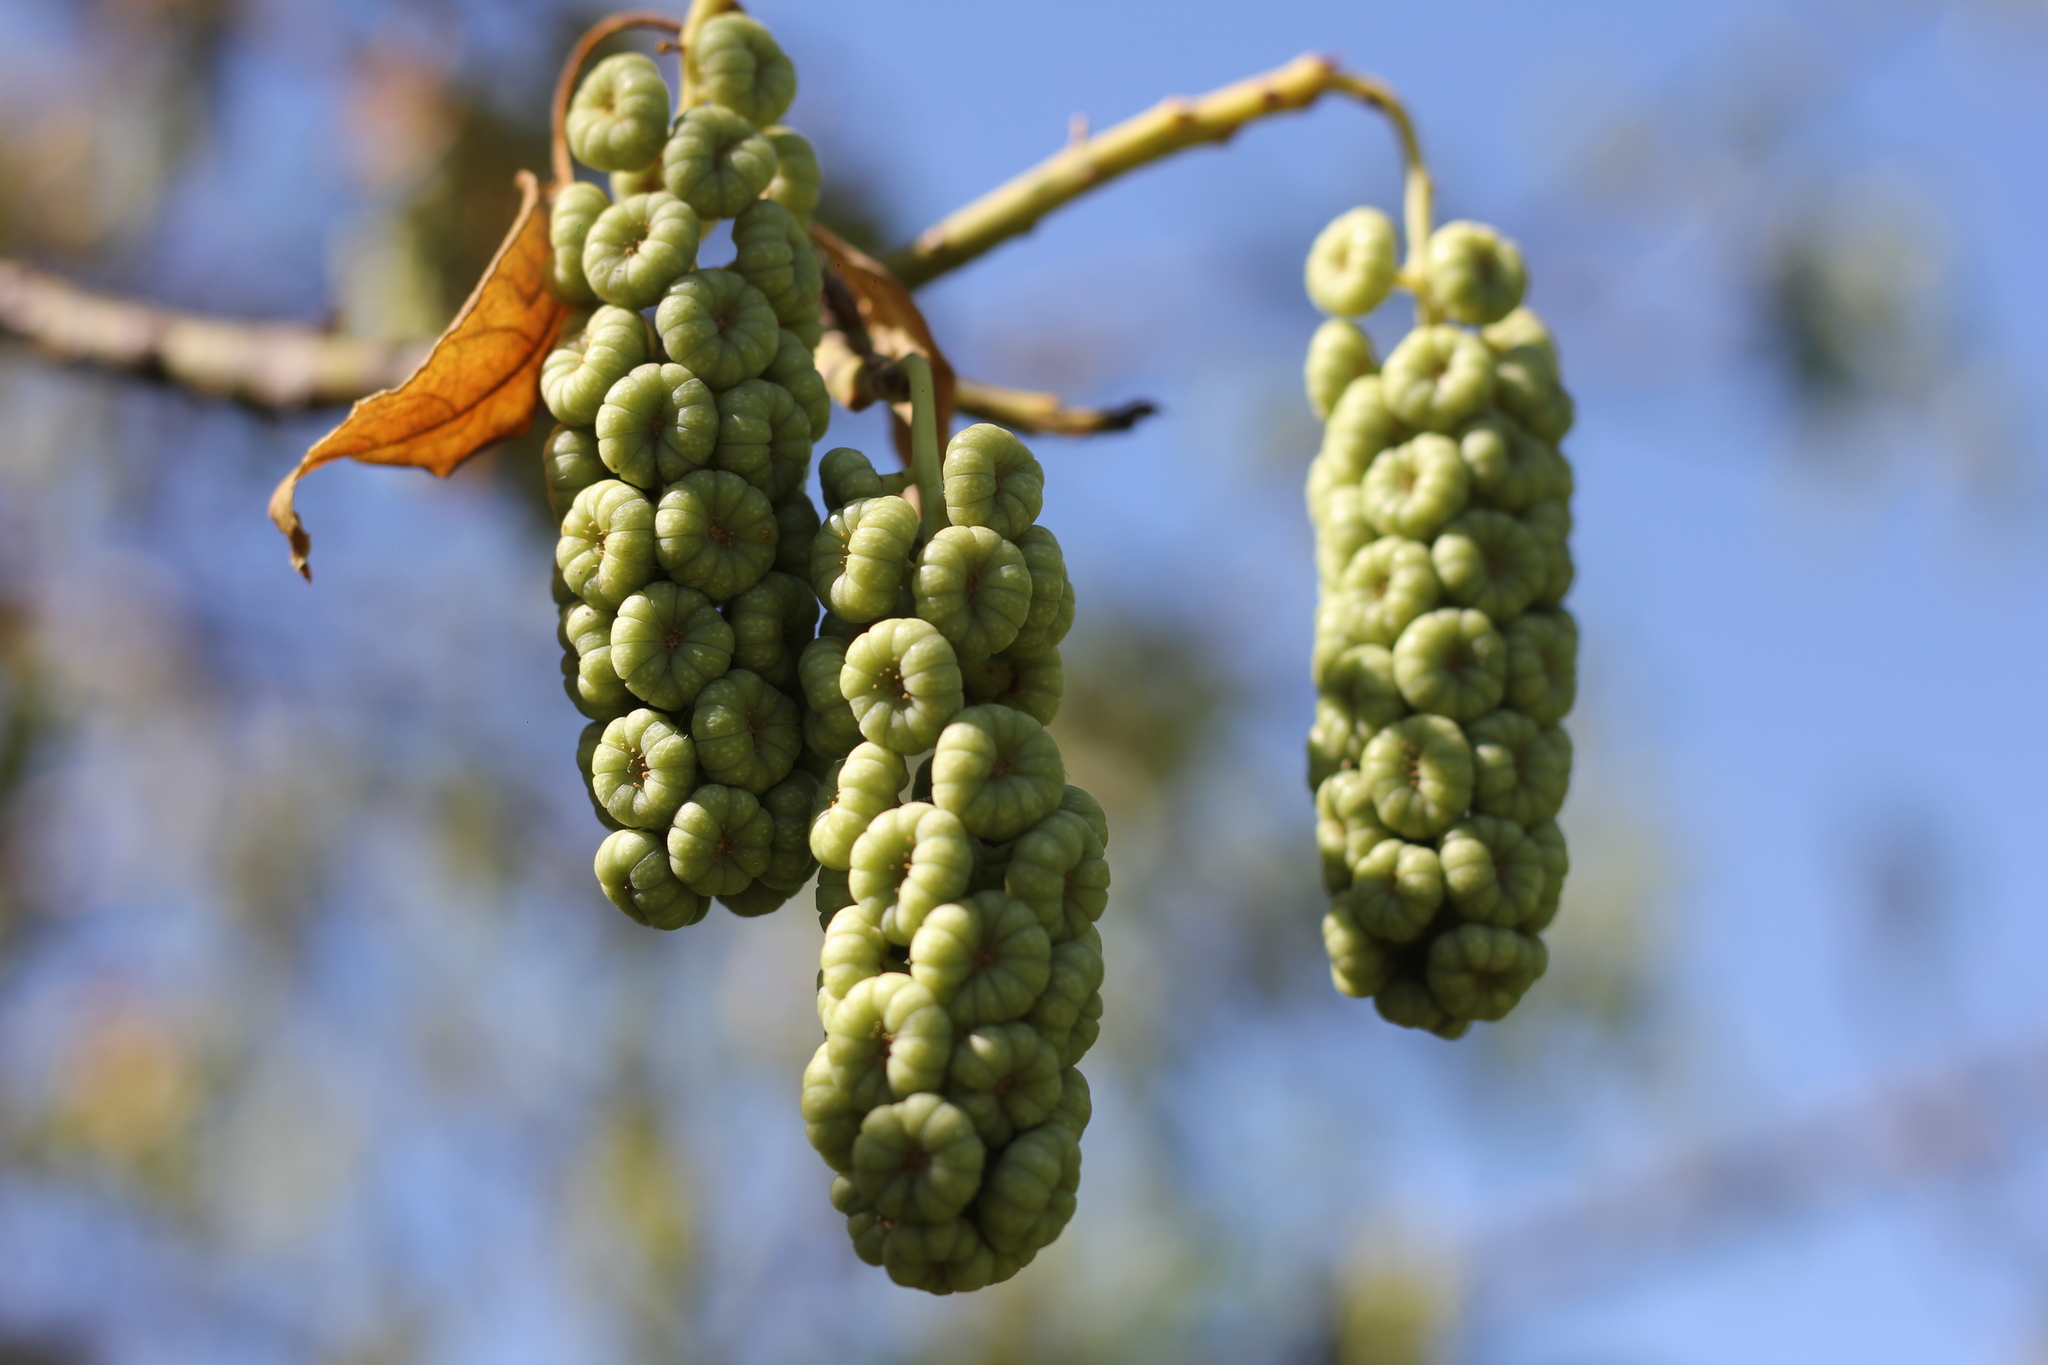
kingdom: Plantae
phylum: Tracheophyta
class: Magnoliopsida
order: Caryophyllales
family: Phytolaccaceae
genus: Phytolacca
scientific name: Phytolacca dioica
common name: Pokeweed
